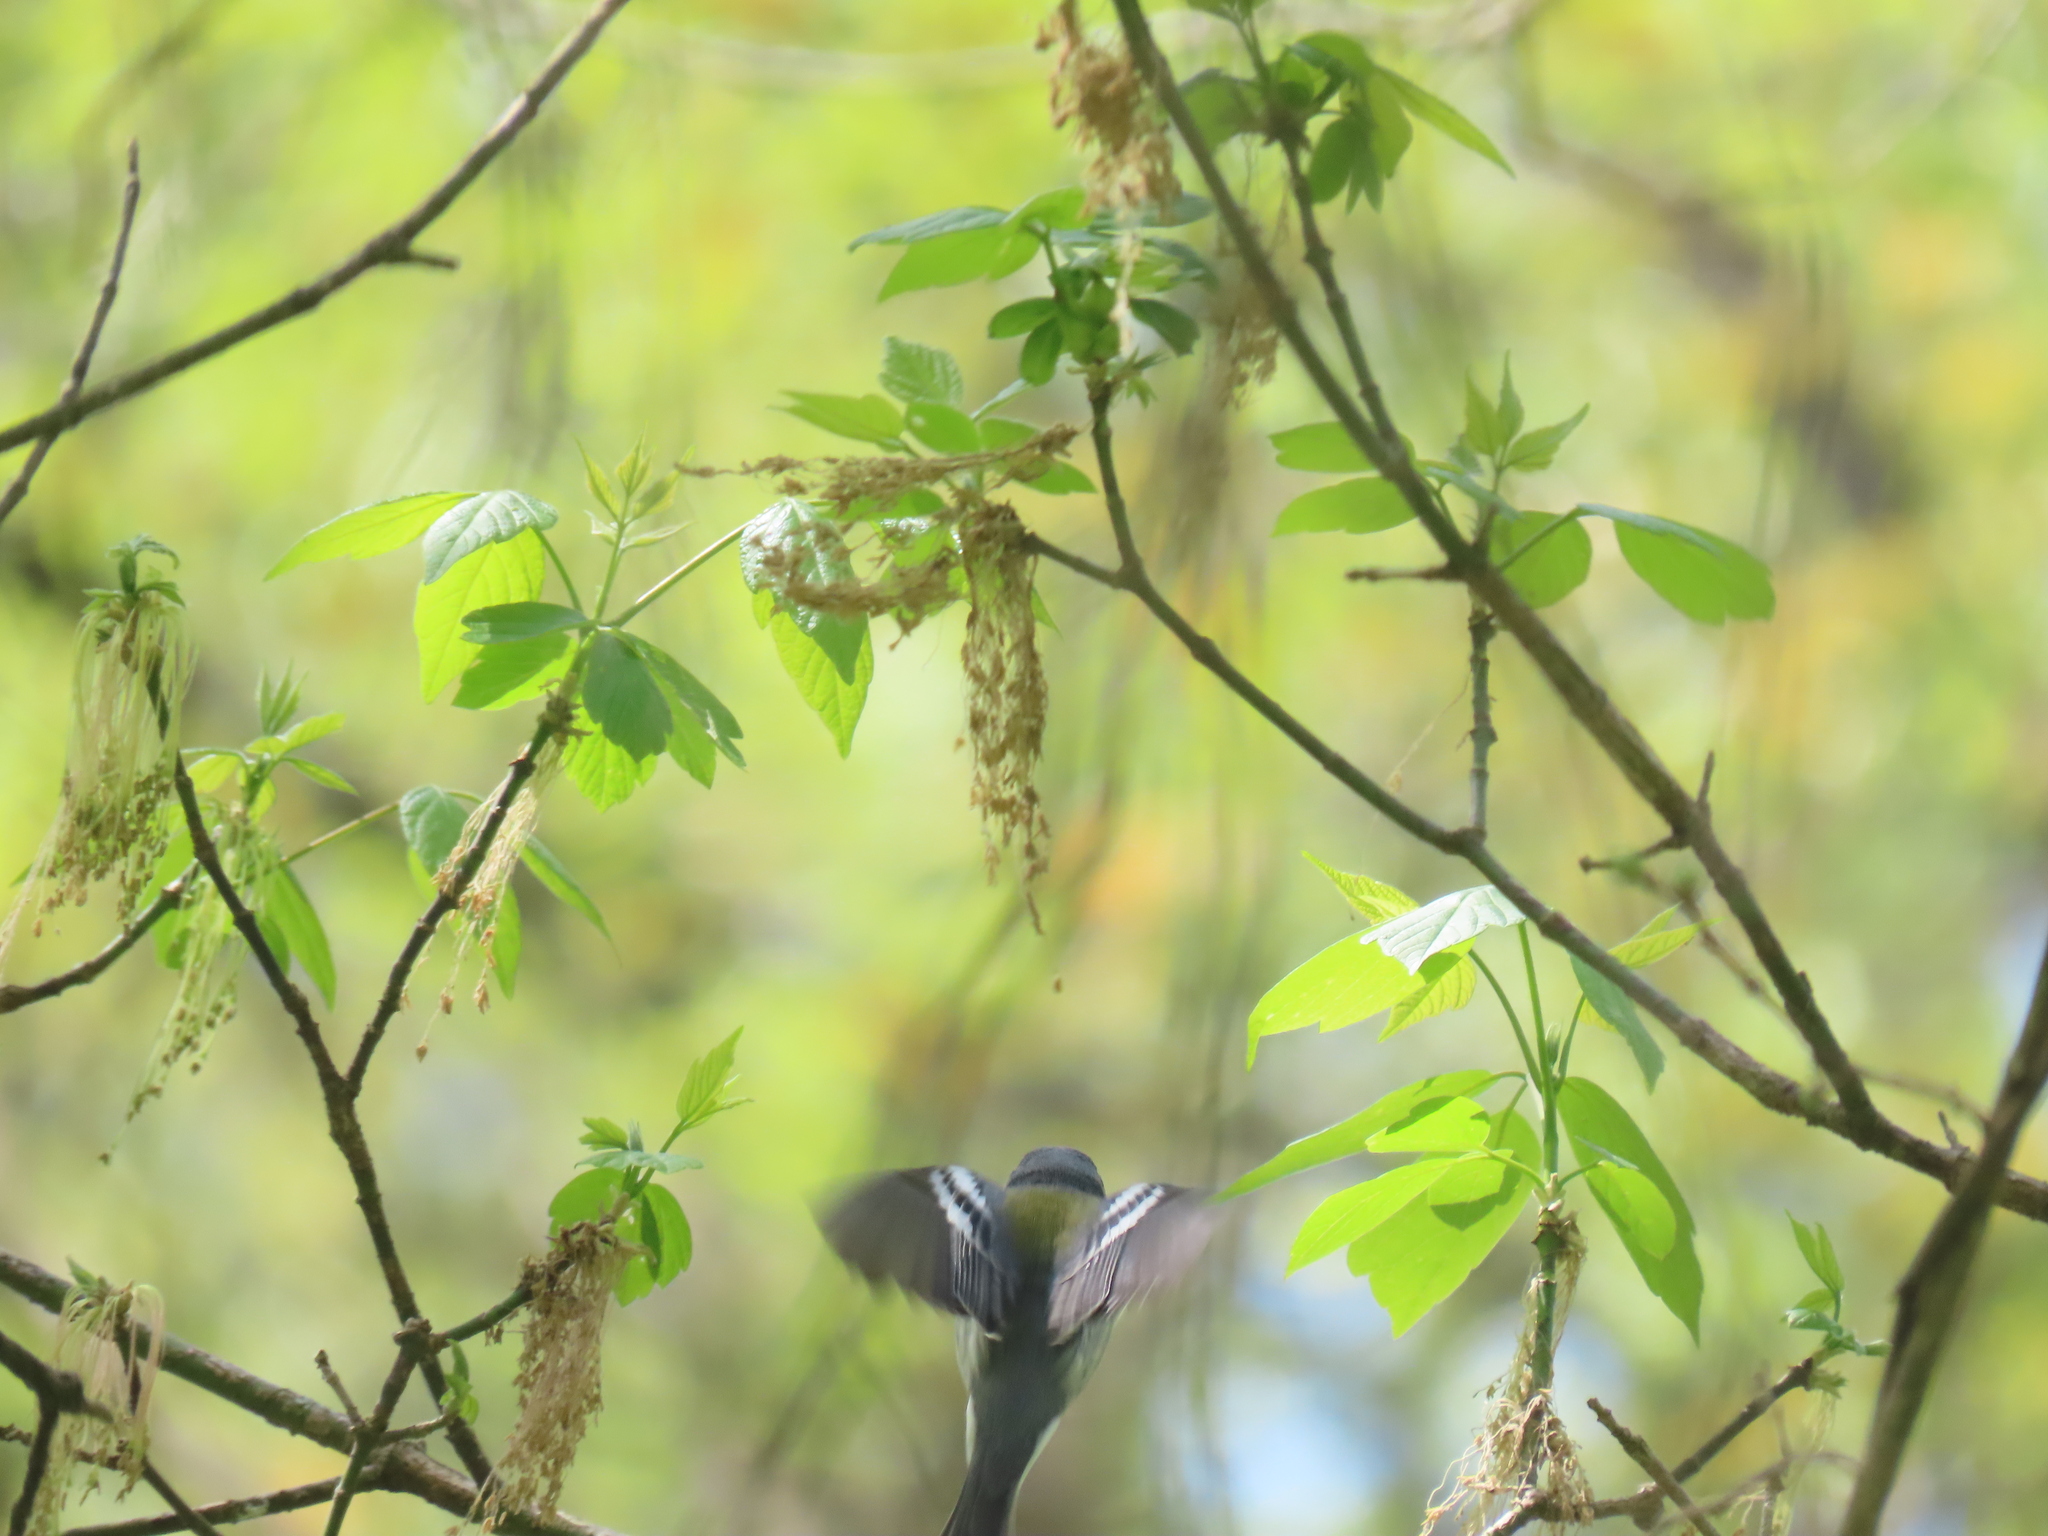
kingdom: Animalia
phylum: Chordata
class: Aves
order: Passeriformes
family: Parulidae
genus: Setophaga
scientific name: Setophaga
